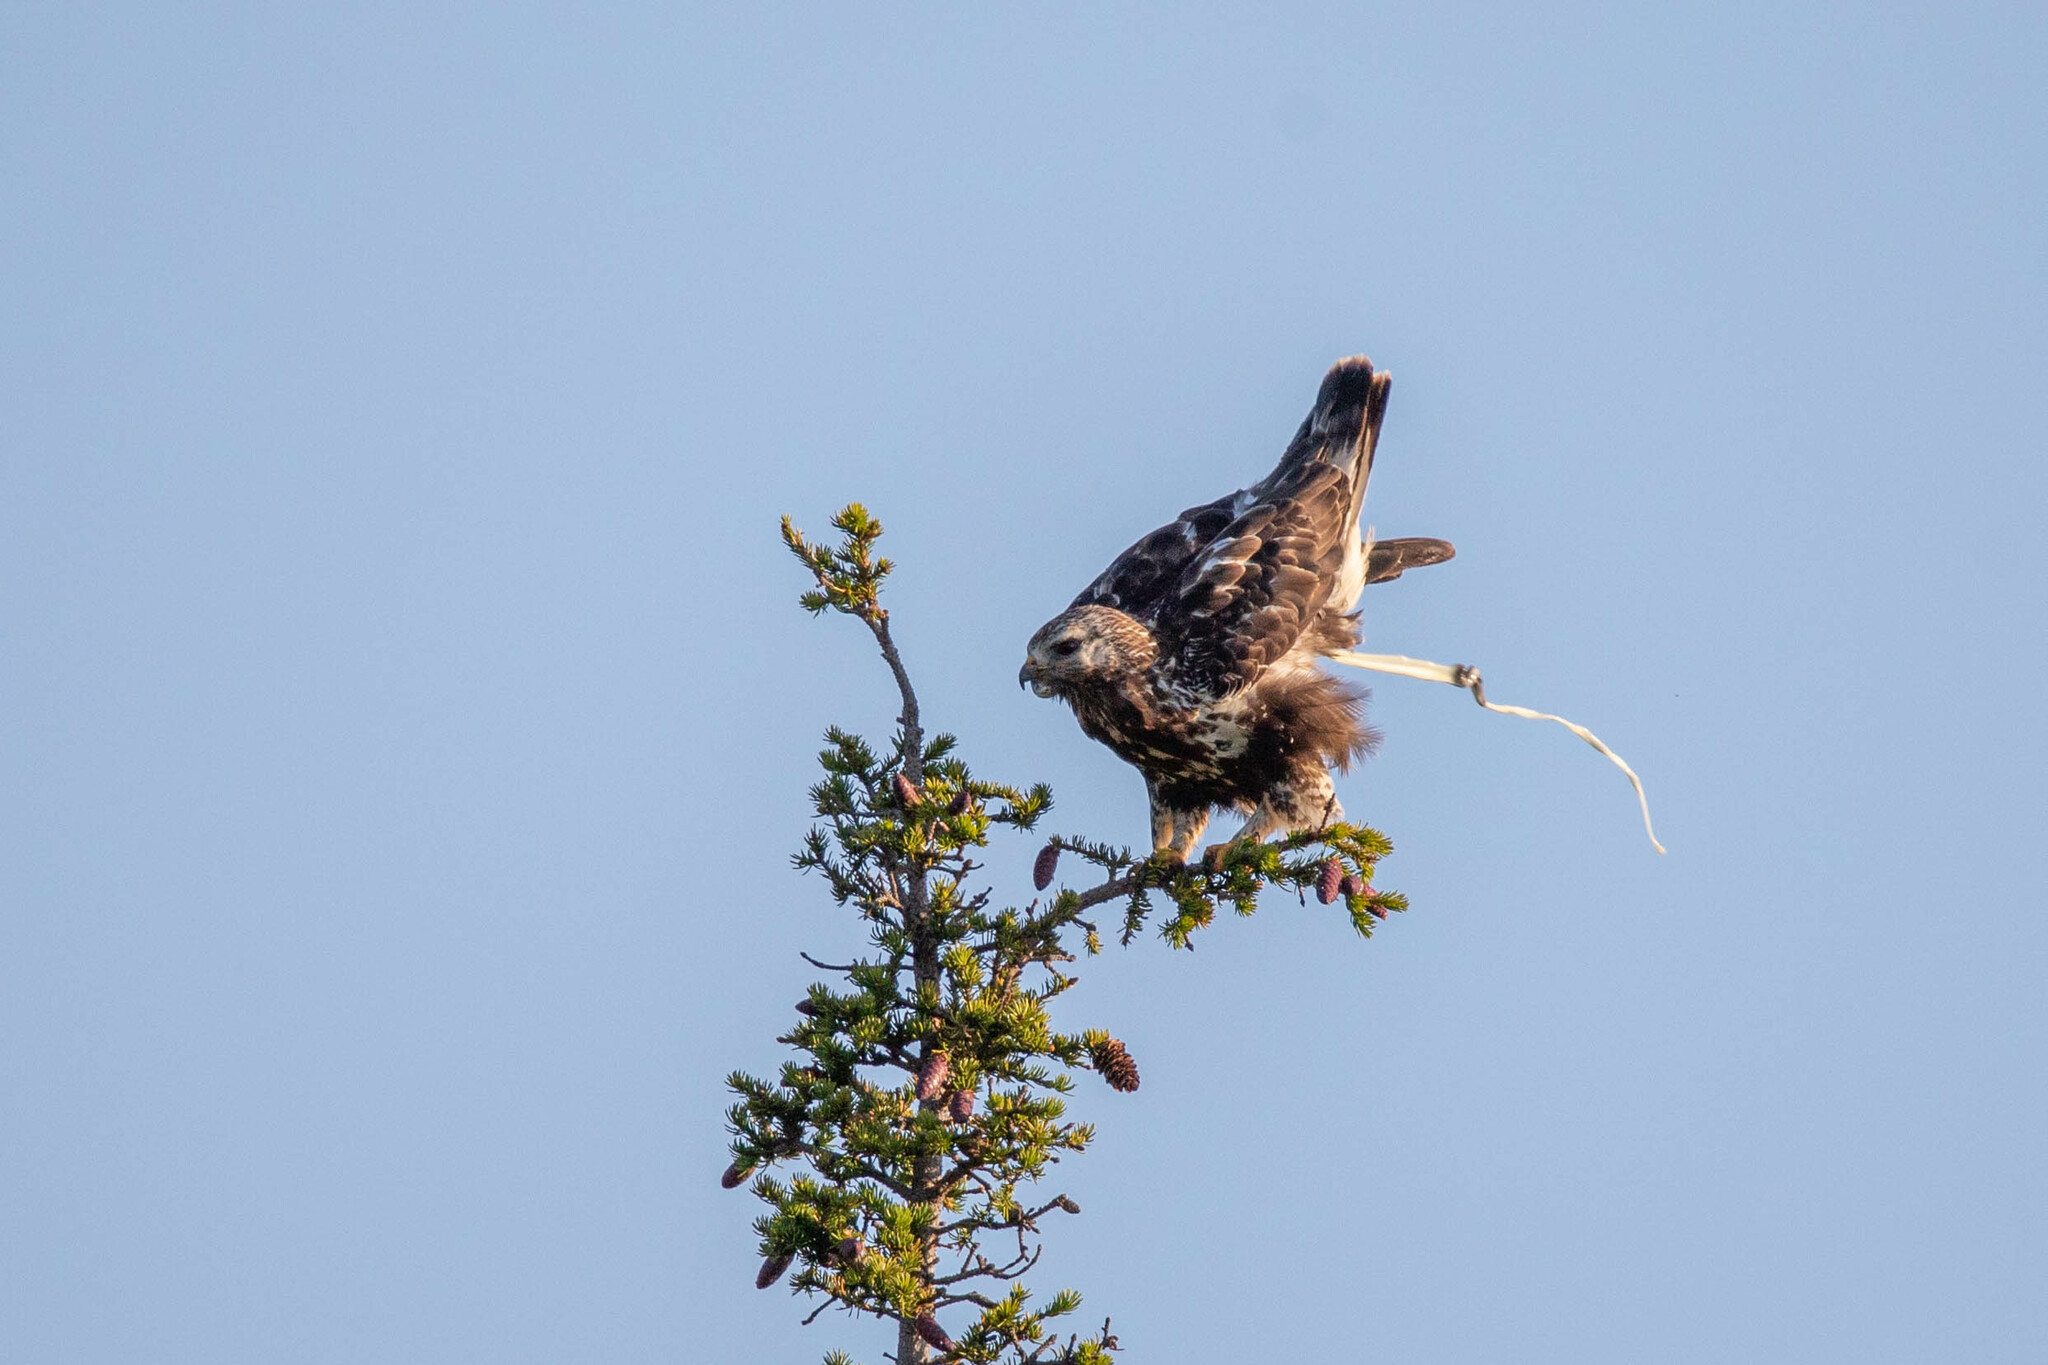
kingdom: Animalia
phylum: Chordata
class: Aves
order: Accipitriformes
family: Accipitridae
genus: Buteo
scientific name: Buteo lagopus
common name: Rough-legged buzzard
